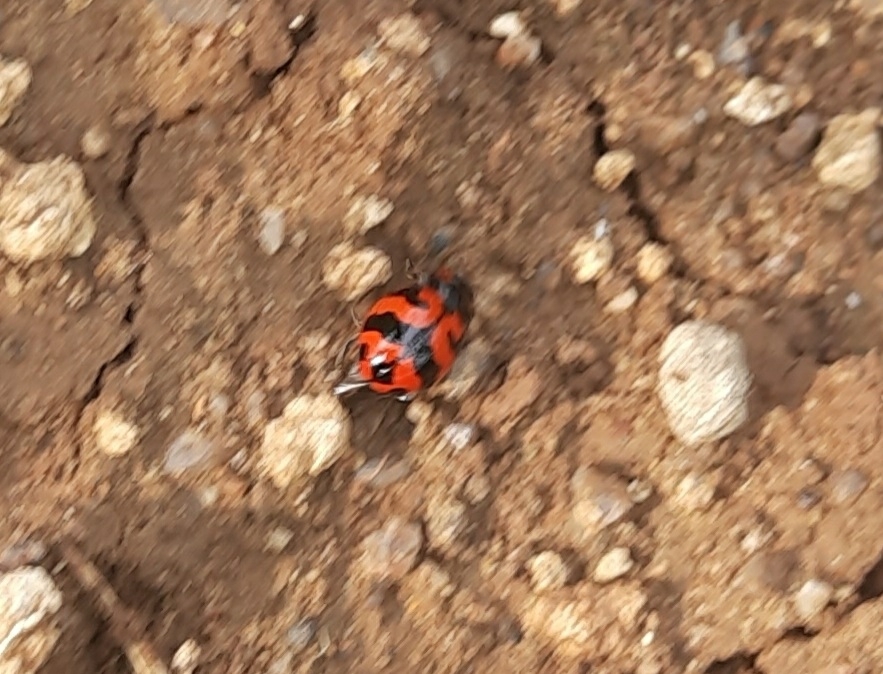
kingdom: Animalia
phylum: Arthropoda
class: Insecta
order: Coleoptera
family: Coccinellidae
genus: Coccinella
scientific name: Coccinella transversalis
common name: Transverse lady beetle
